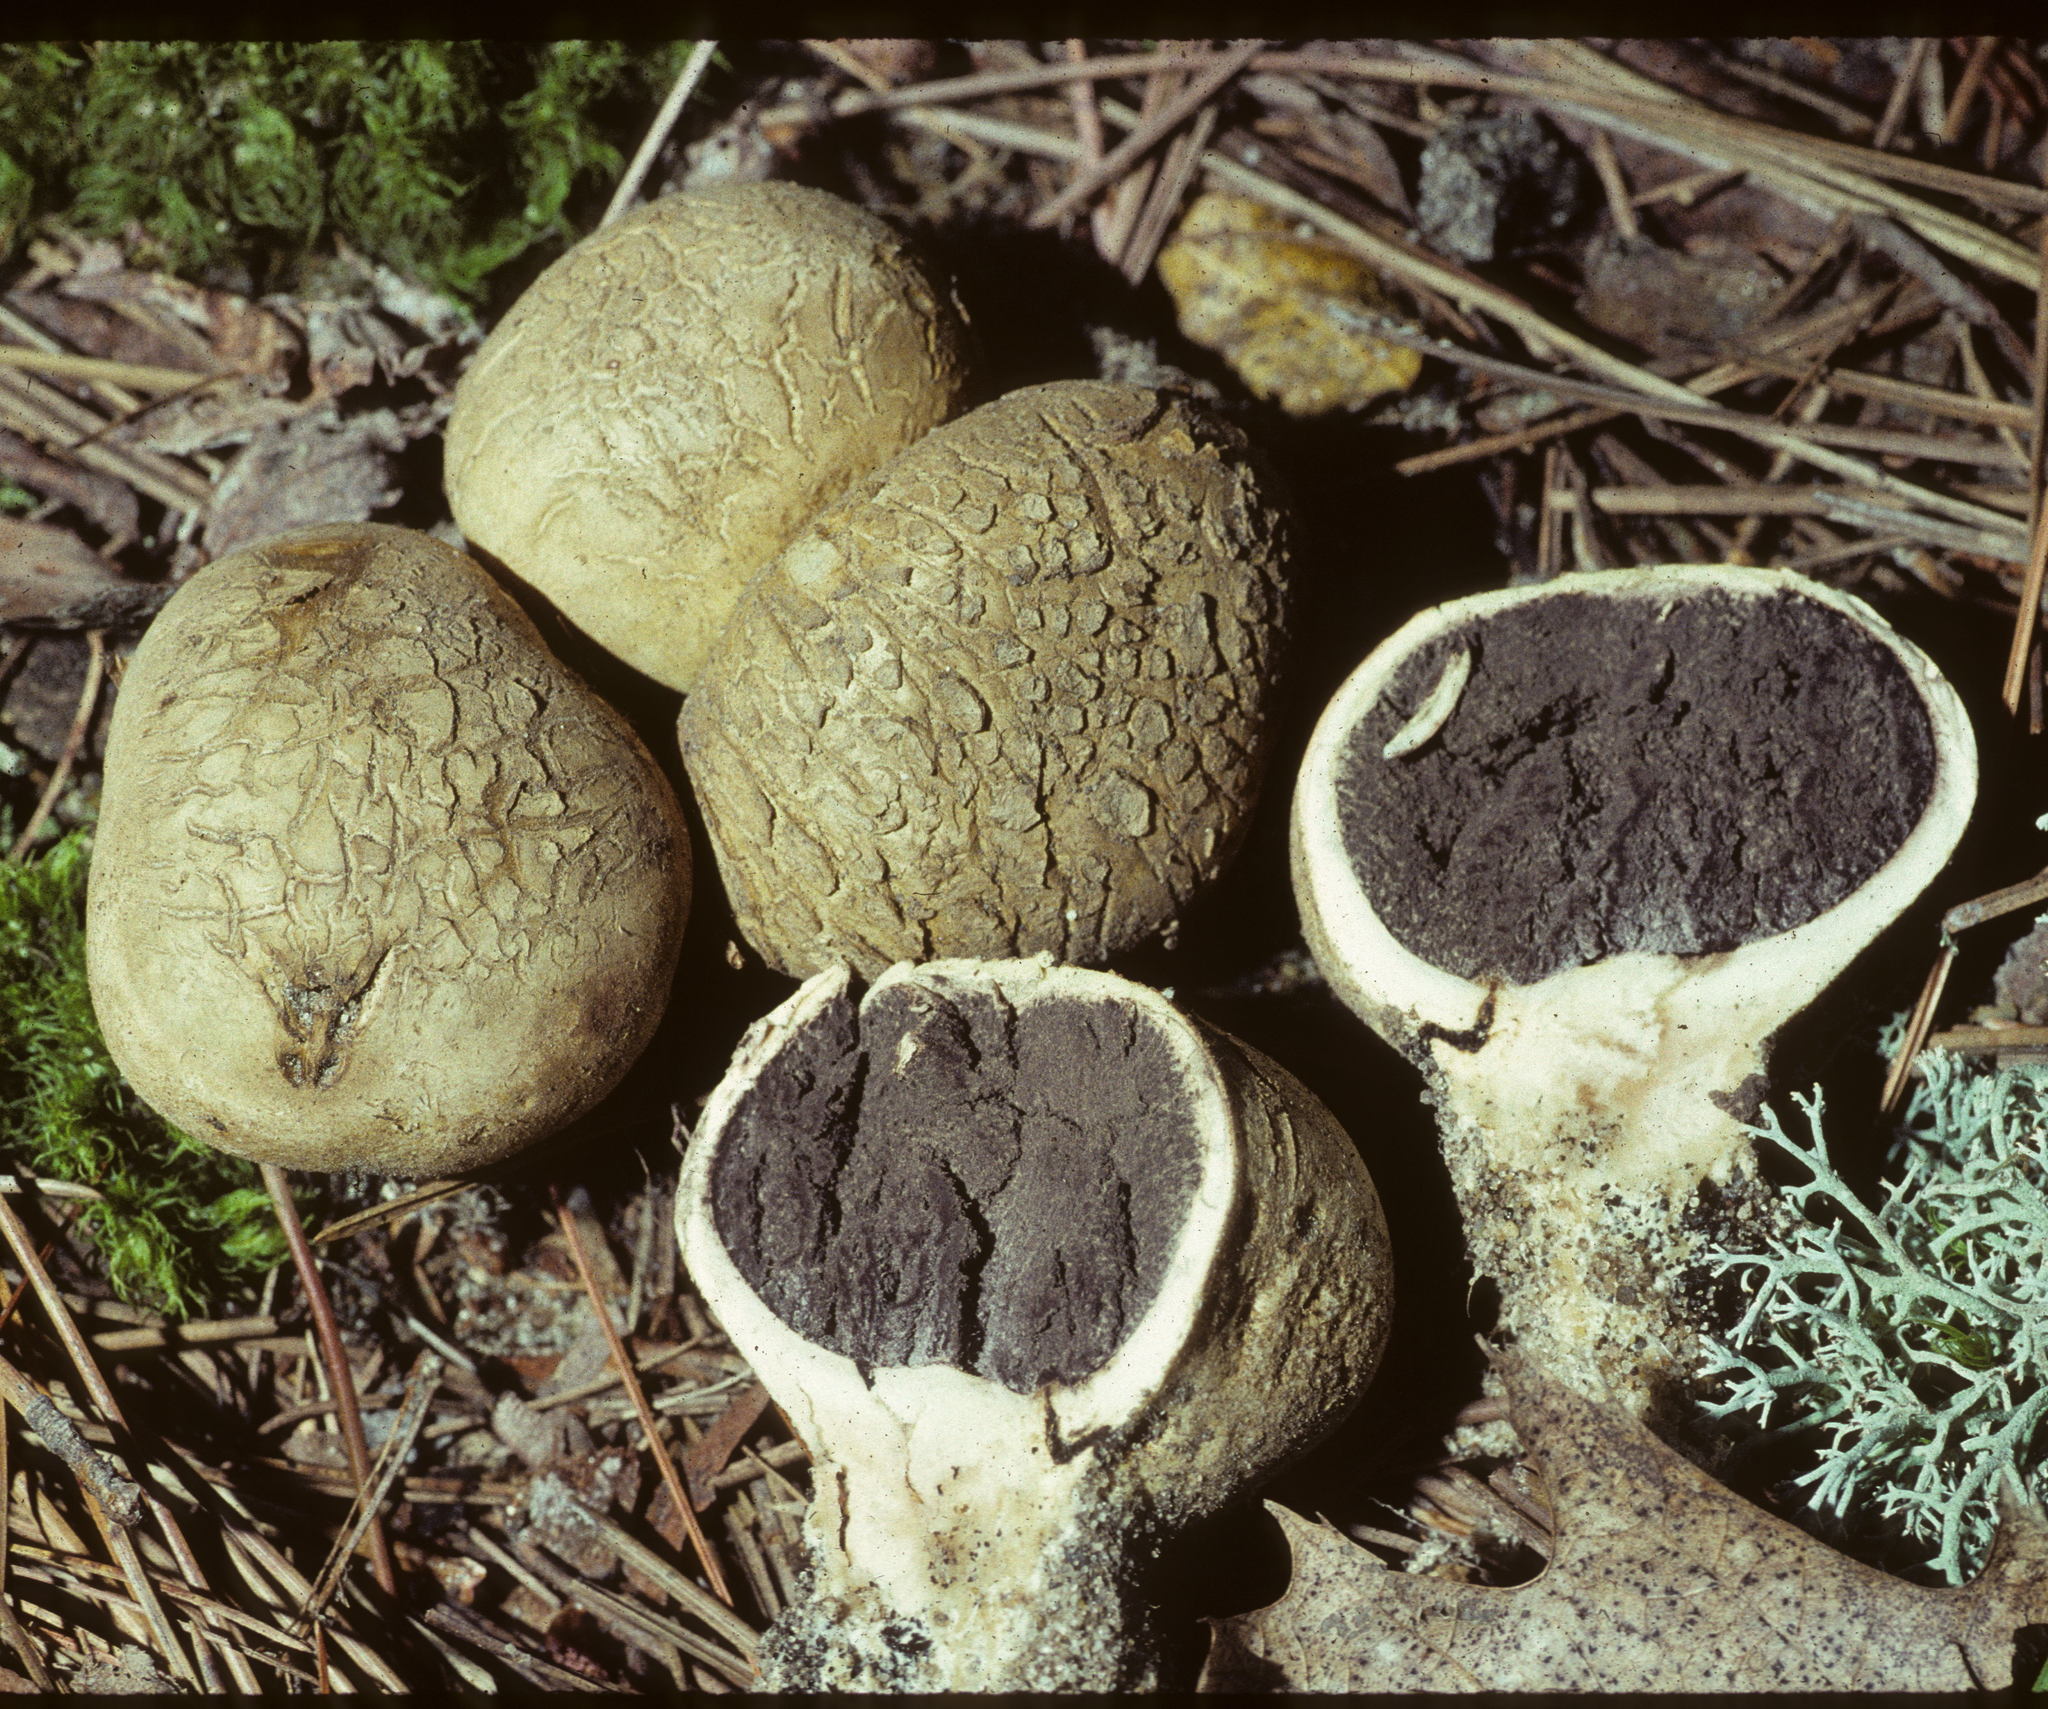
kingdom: Fungi
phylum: Basidiomycota
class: Agaricomycetes
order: Boletales
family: Sclerodermataceae
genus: Scleroderma
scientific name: Scleroderma cepa
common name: Onion earthball
